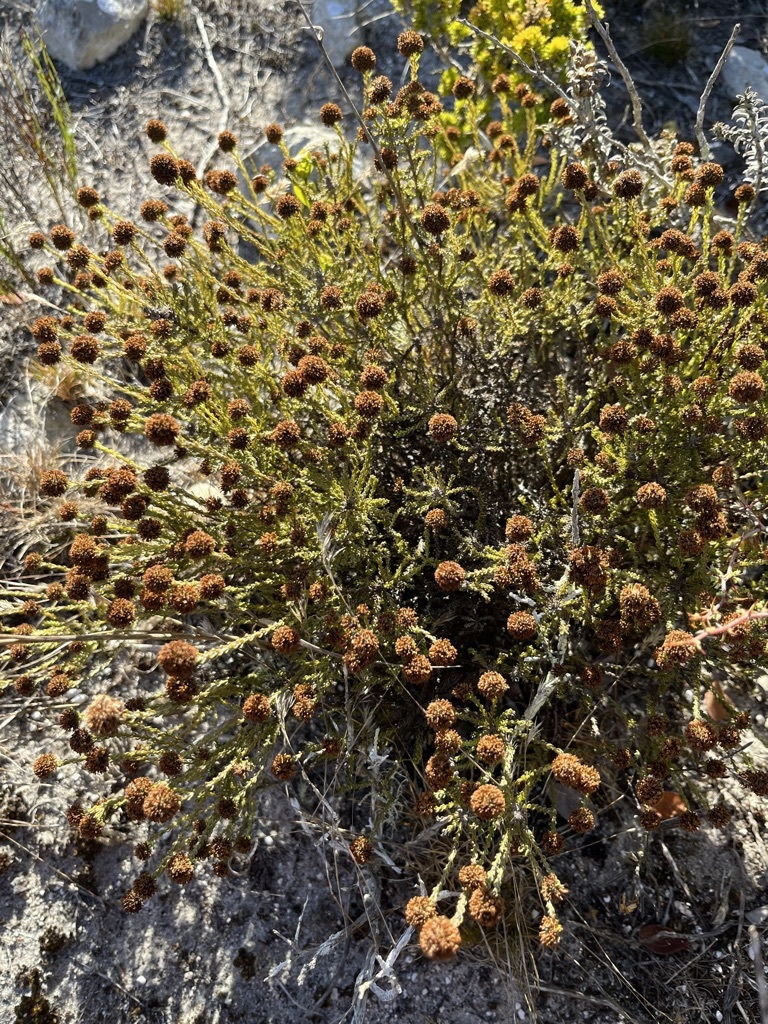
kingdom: Plantae
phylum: Tracheophyta
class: Magnoliopsida
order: Asterales
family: Asteraceae
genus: Disparago
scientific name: Disparago anomala
